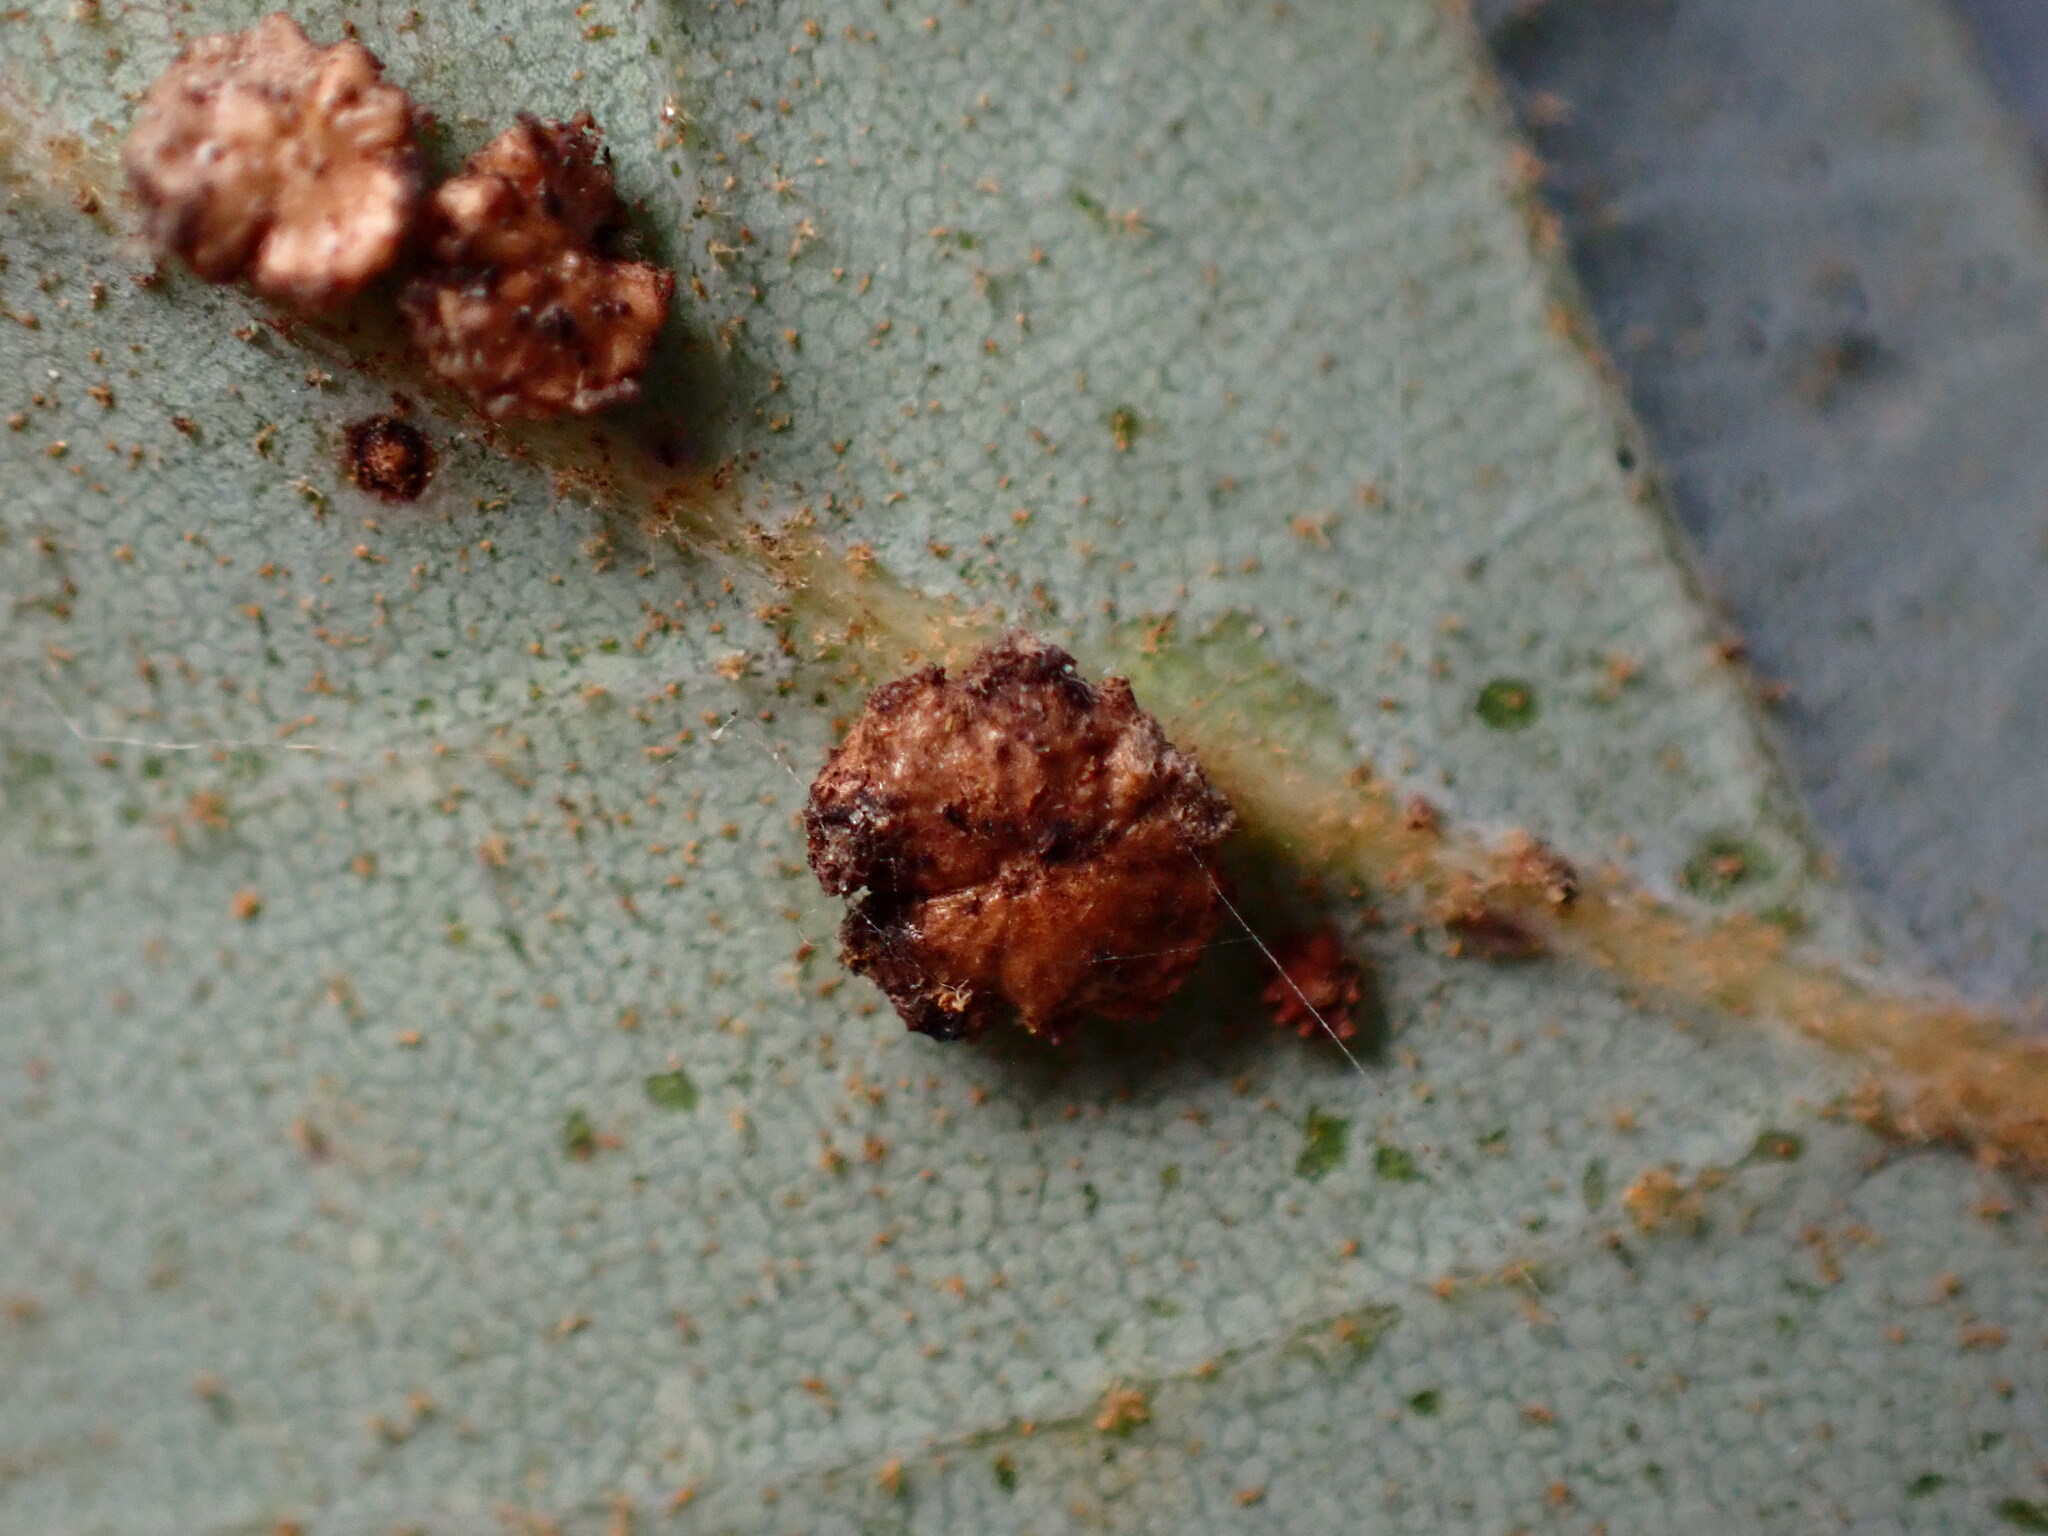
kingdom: Animalia
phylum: Arthropoda
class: Insecta
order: Hymenoptera
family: Cynipidae
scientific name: Cynipidae
